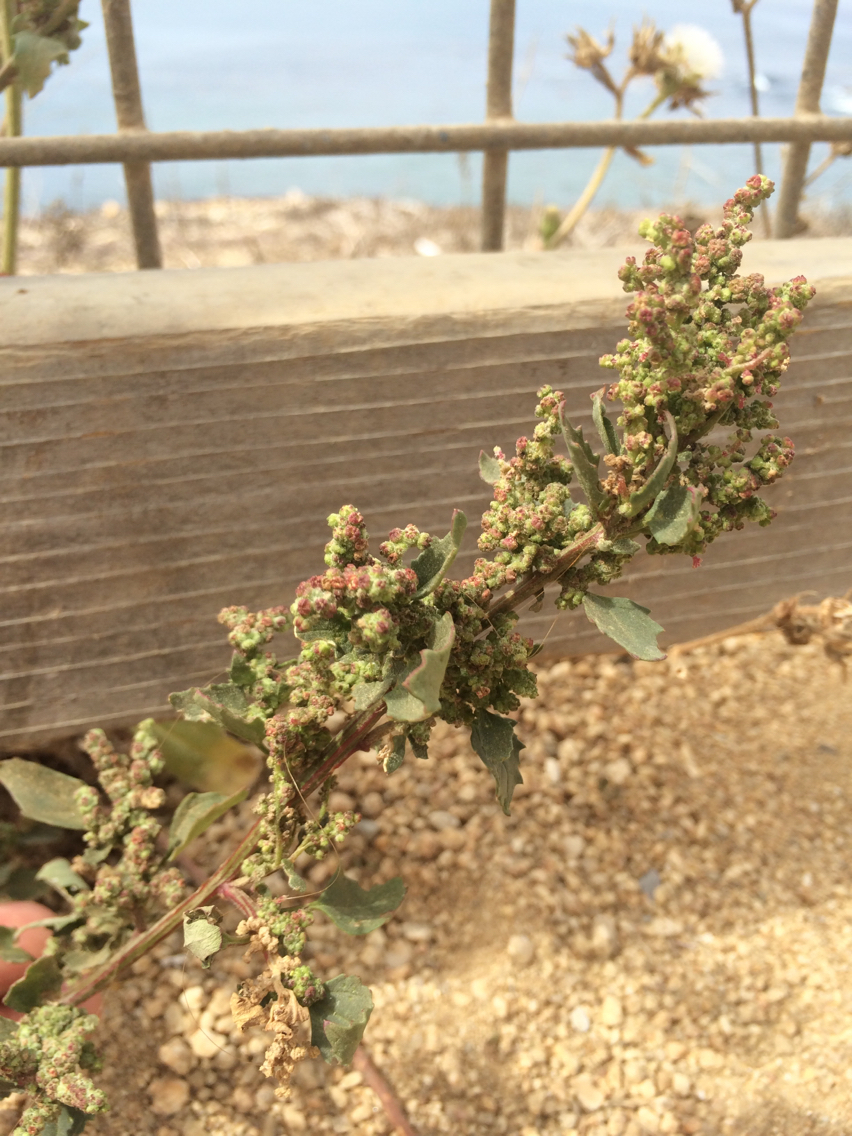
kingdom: Plantae
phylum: Tracheophyta
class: Magnoliopsida
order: Caryophyllales
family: Amaranthaceae
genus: Chenopodiastrum
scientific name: Chenopodiastrum murale
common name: Sowbane
